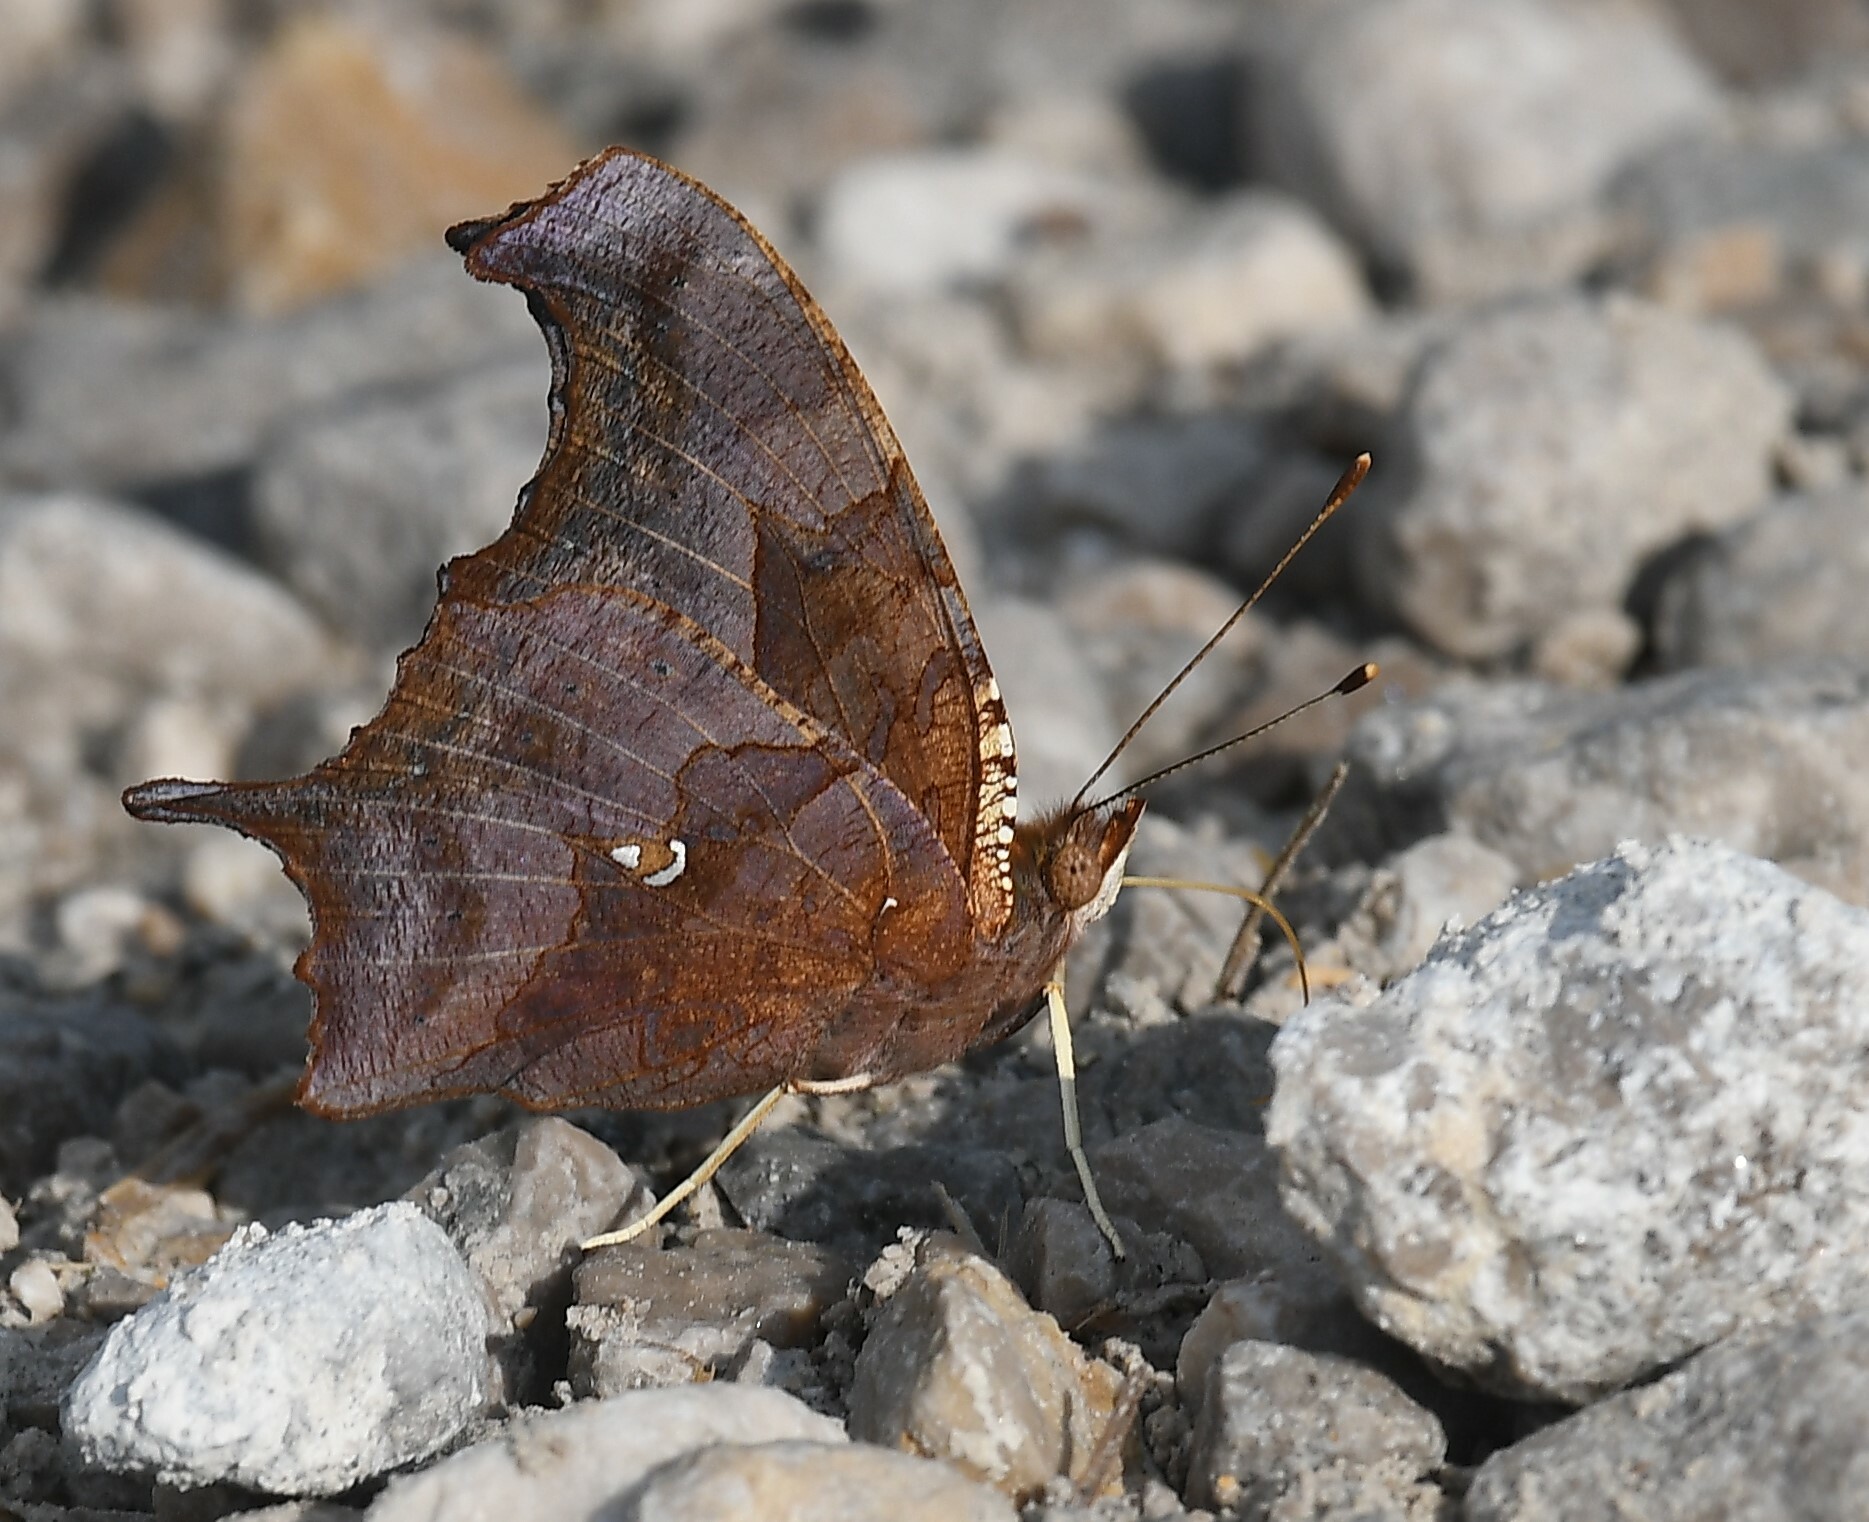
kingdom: Animalia
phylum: Arthropoda
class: Insecta
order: Lepidoptera
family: Nymphalidae
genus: Polygonia
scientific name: Polygonia interrogationis
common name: Question mark
